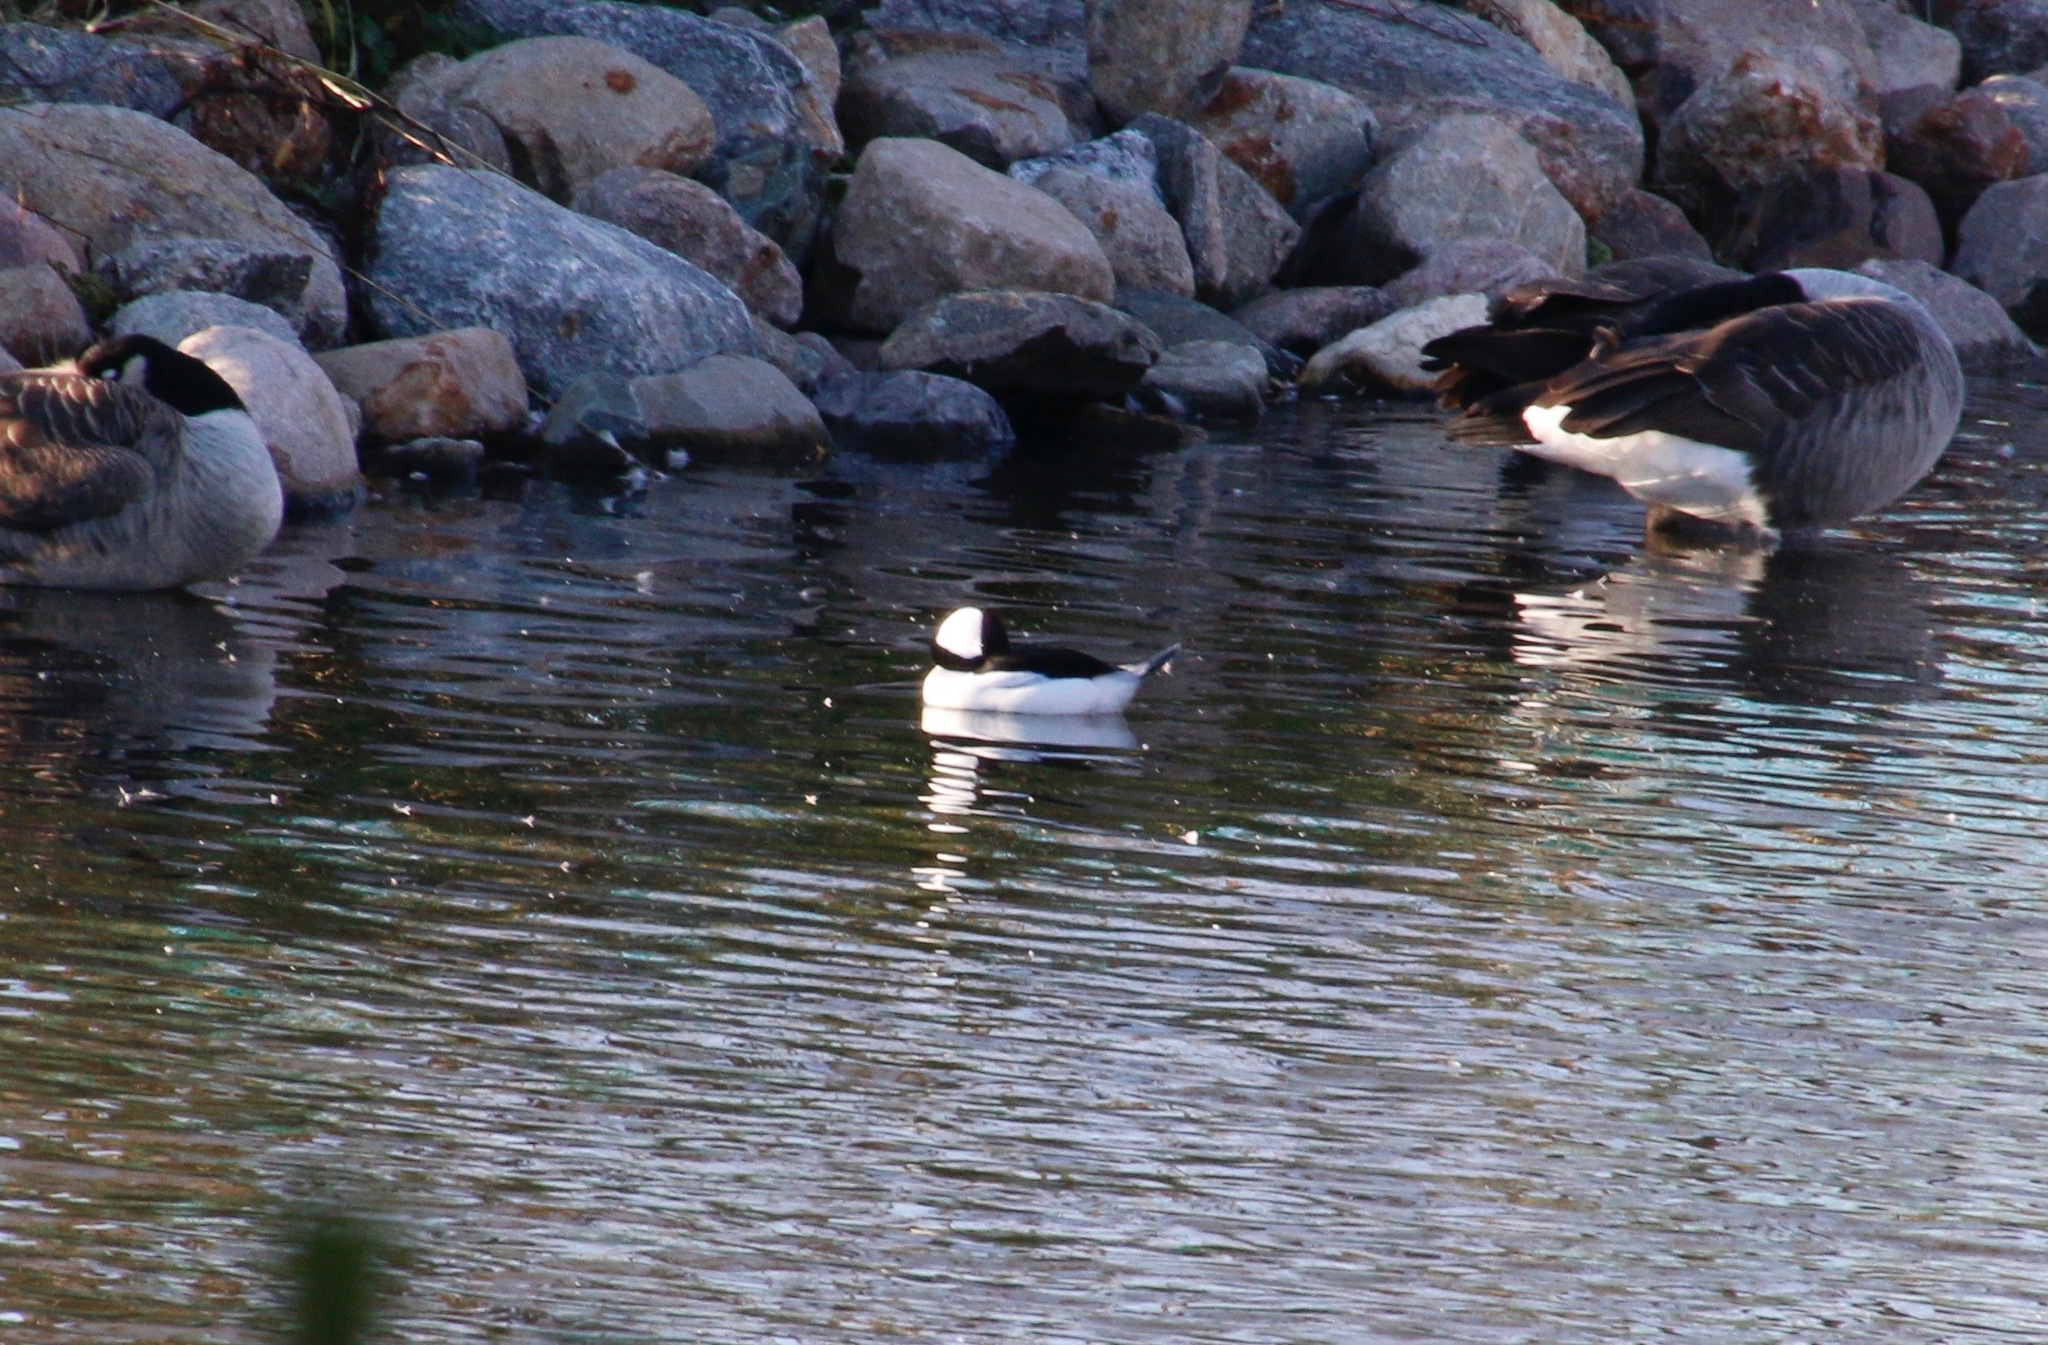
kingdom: Animalia
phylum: Chordata
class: Aves
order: Anseriformes
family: Anatidae
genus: Bucephala
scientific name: Bucephala albeola
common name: Bufflehead
